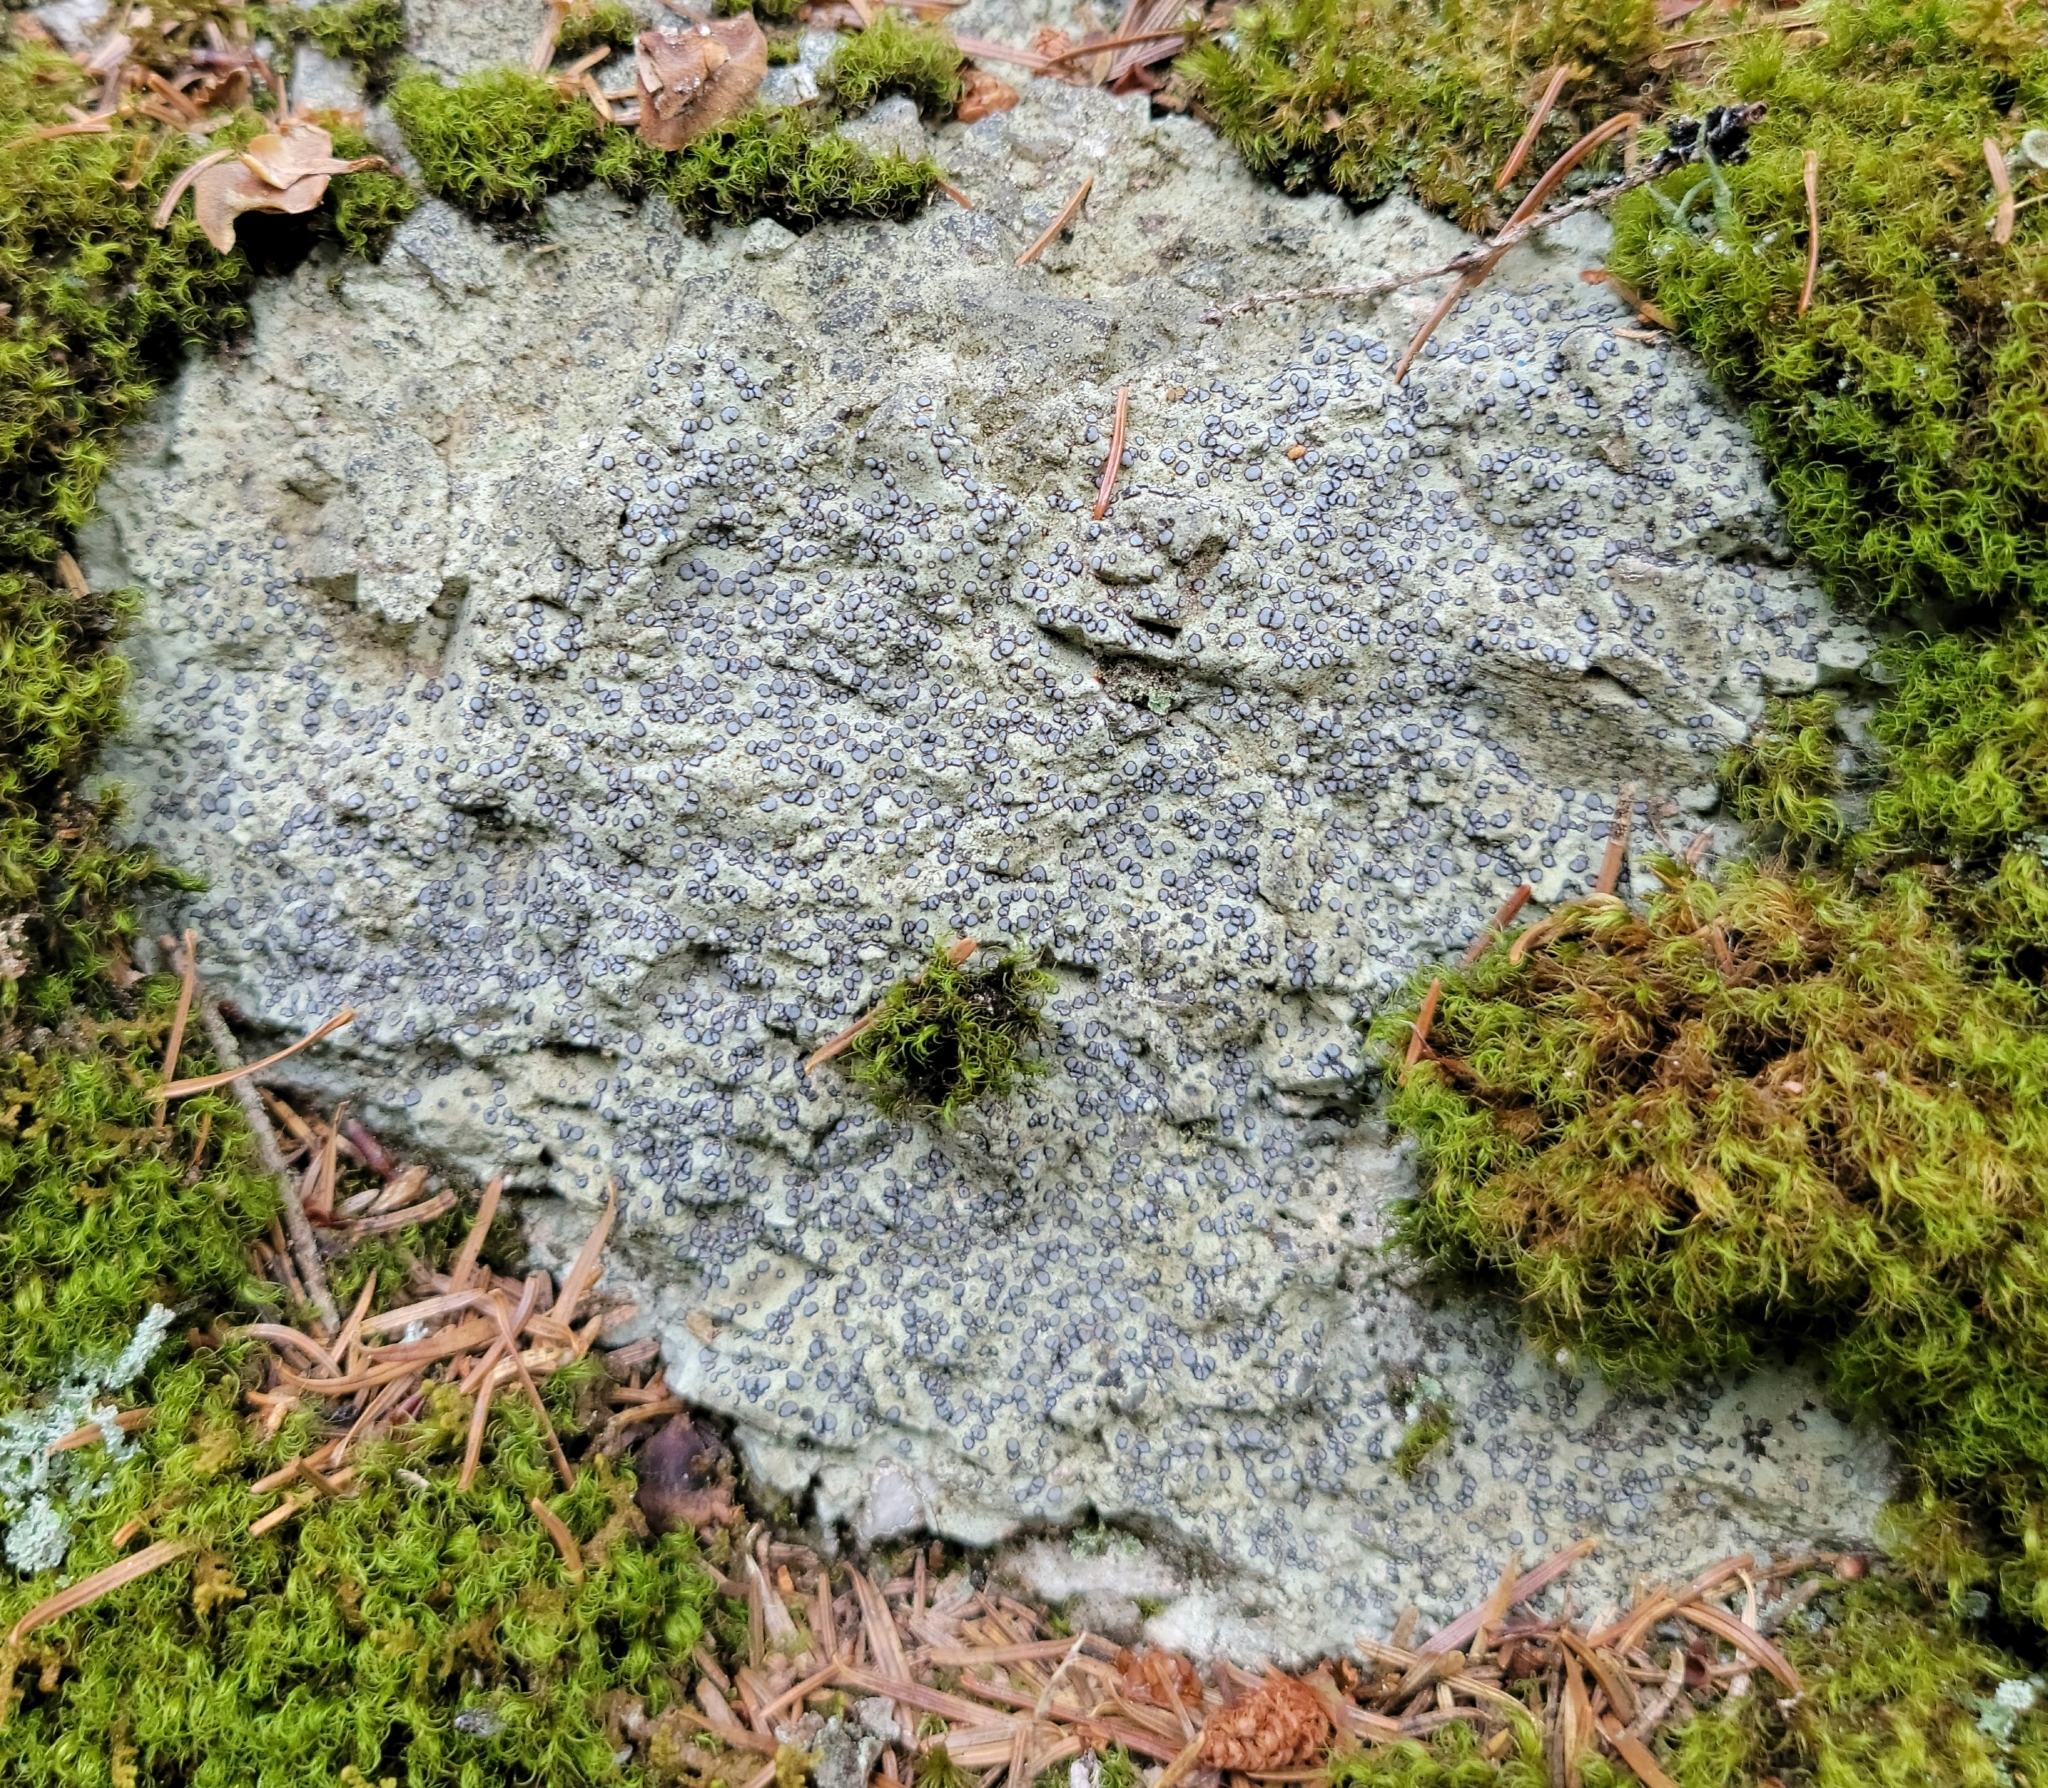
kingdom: Fungi
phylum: Ascomycota
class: Lecanoromycetes
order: Lecideales
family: Lecideaceae
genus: Porpidia
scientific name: Porpidia albocaerulescens
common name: Smokey-eyed boulder lichen
